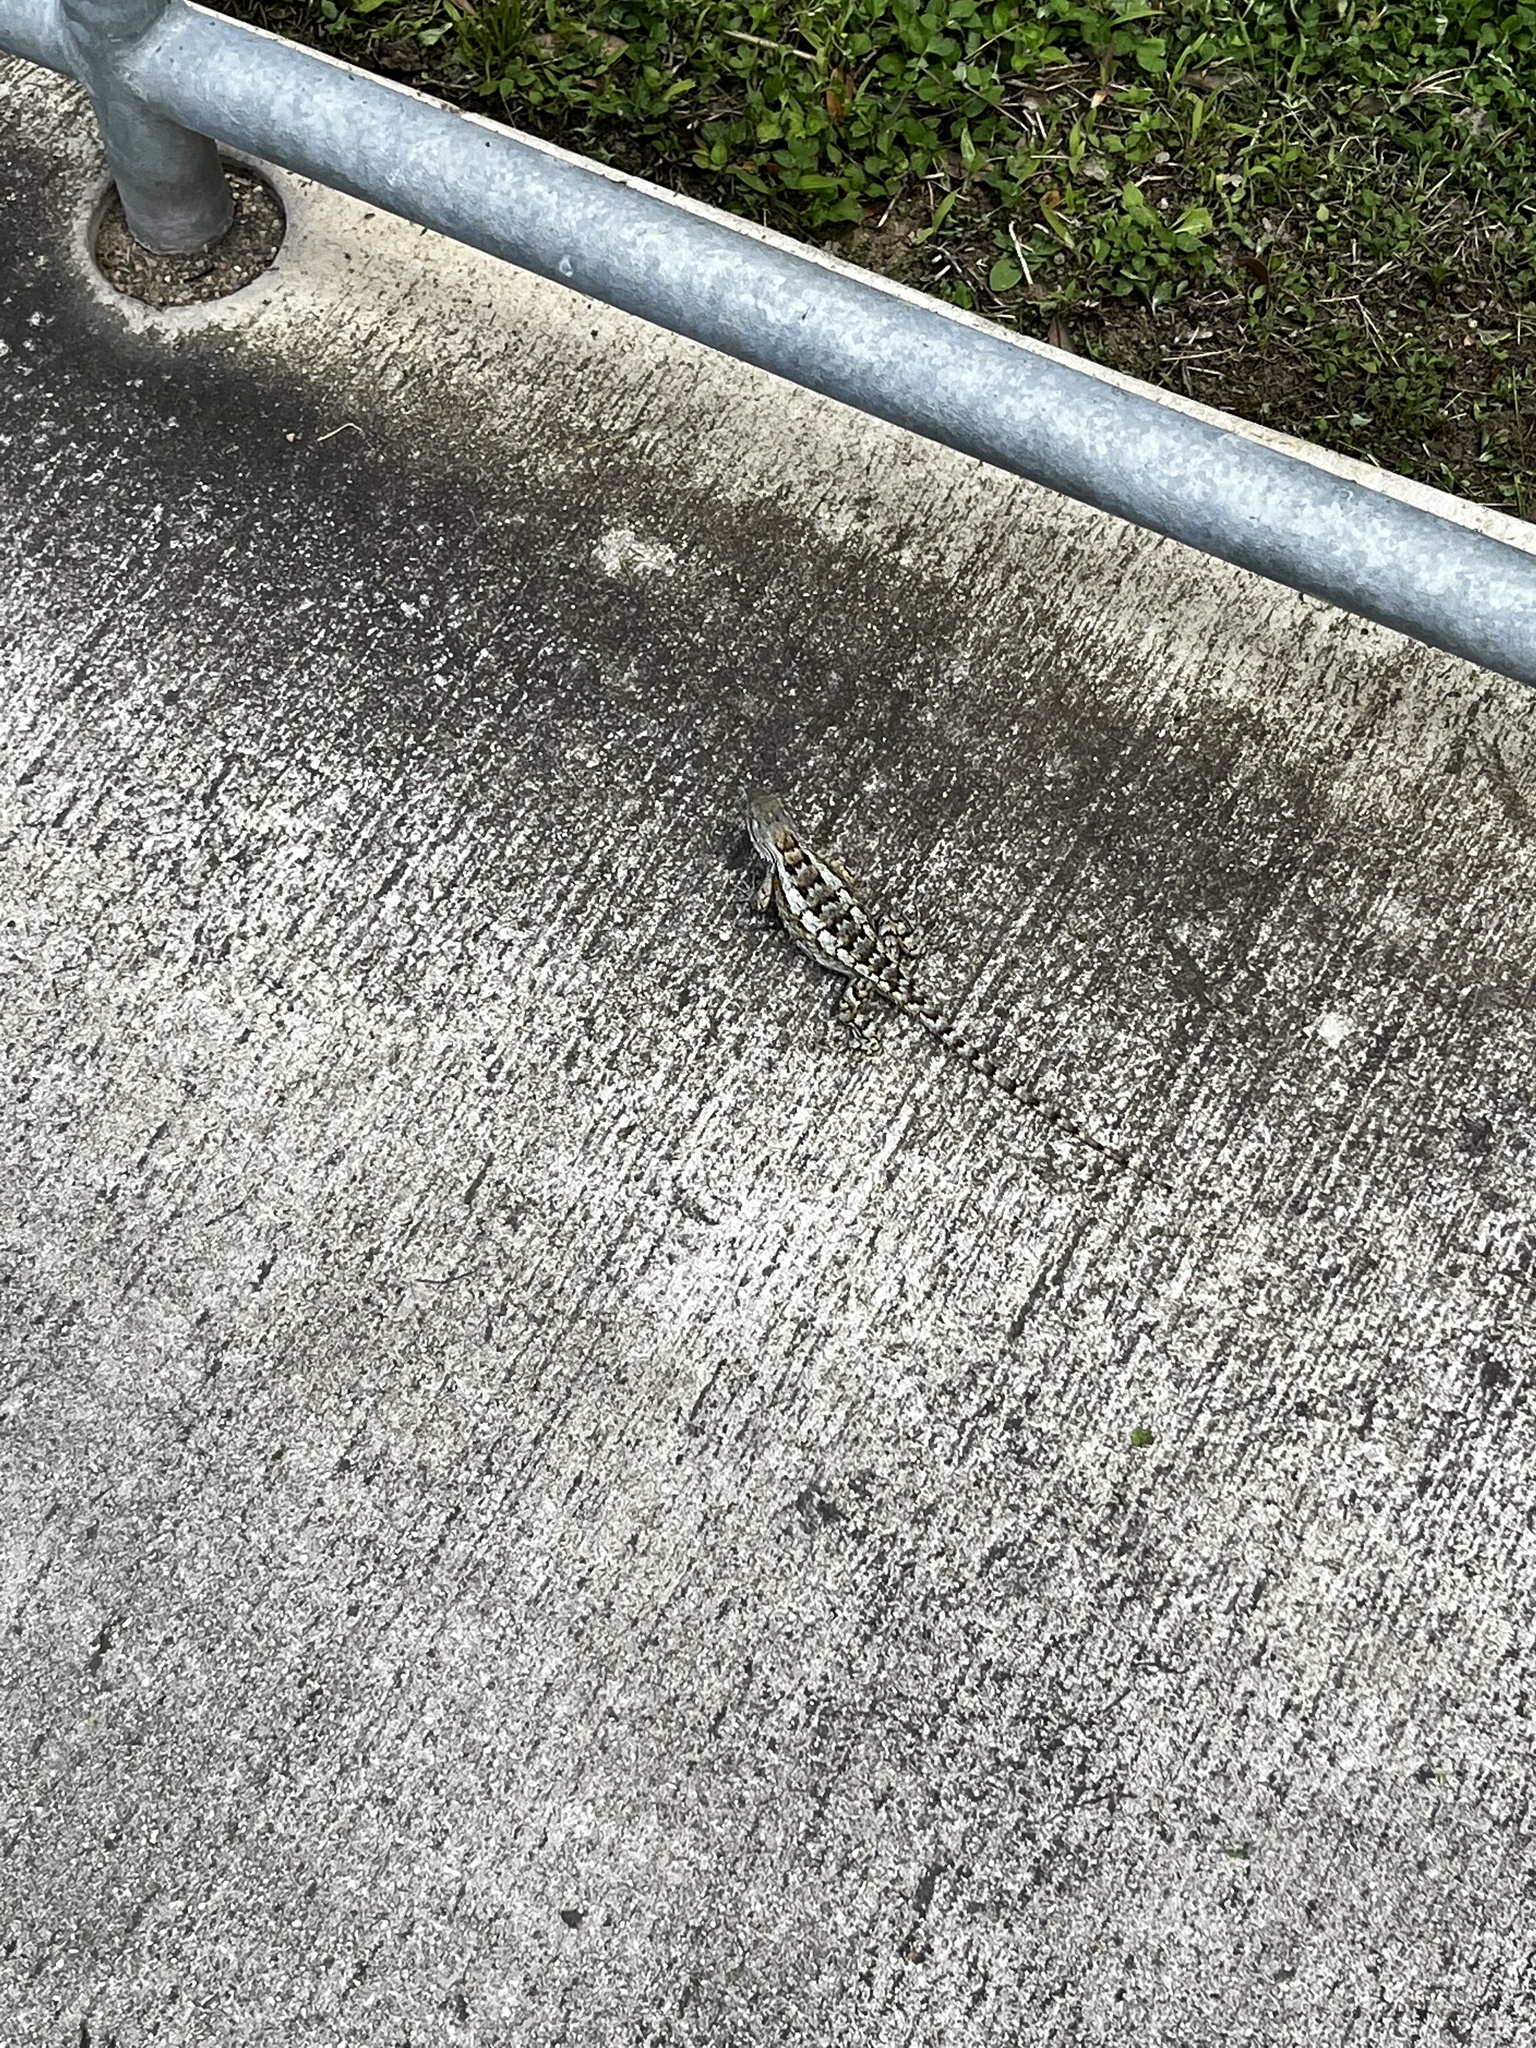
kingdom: Animalia
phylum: Chordata
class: Squamata
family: Phrynosomatidae
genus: Sceloporus
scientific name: Sceloporus olivaceus
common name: Texas spiny lizard
